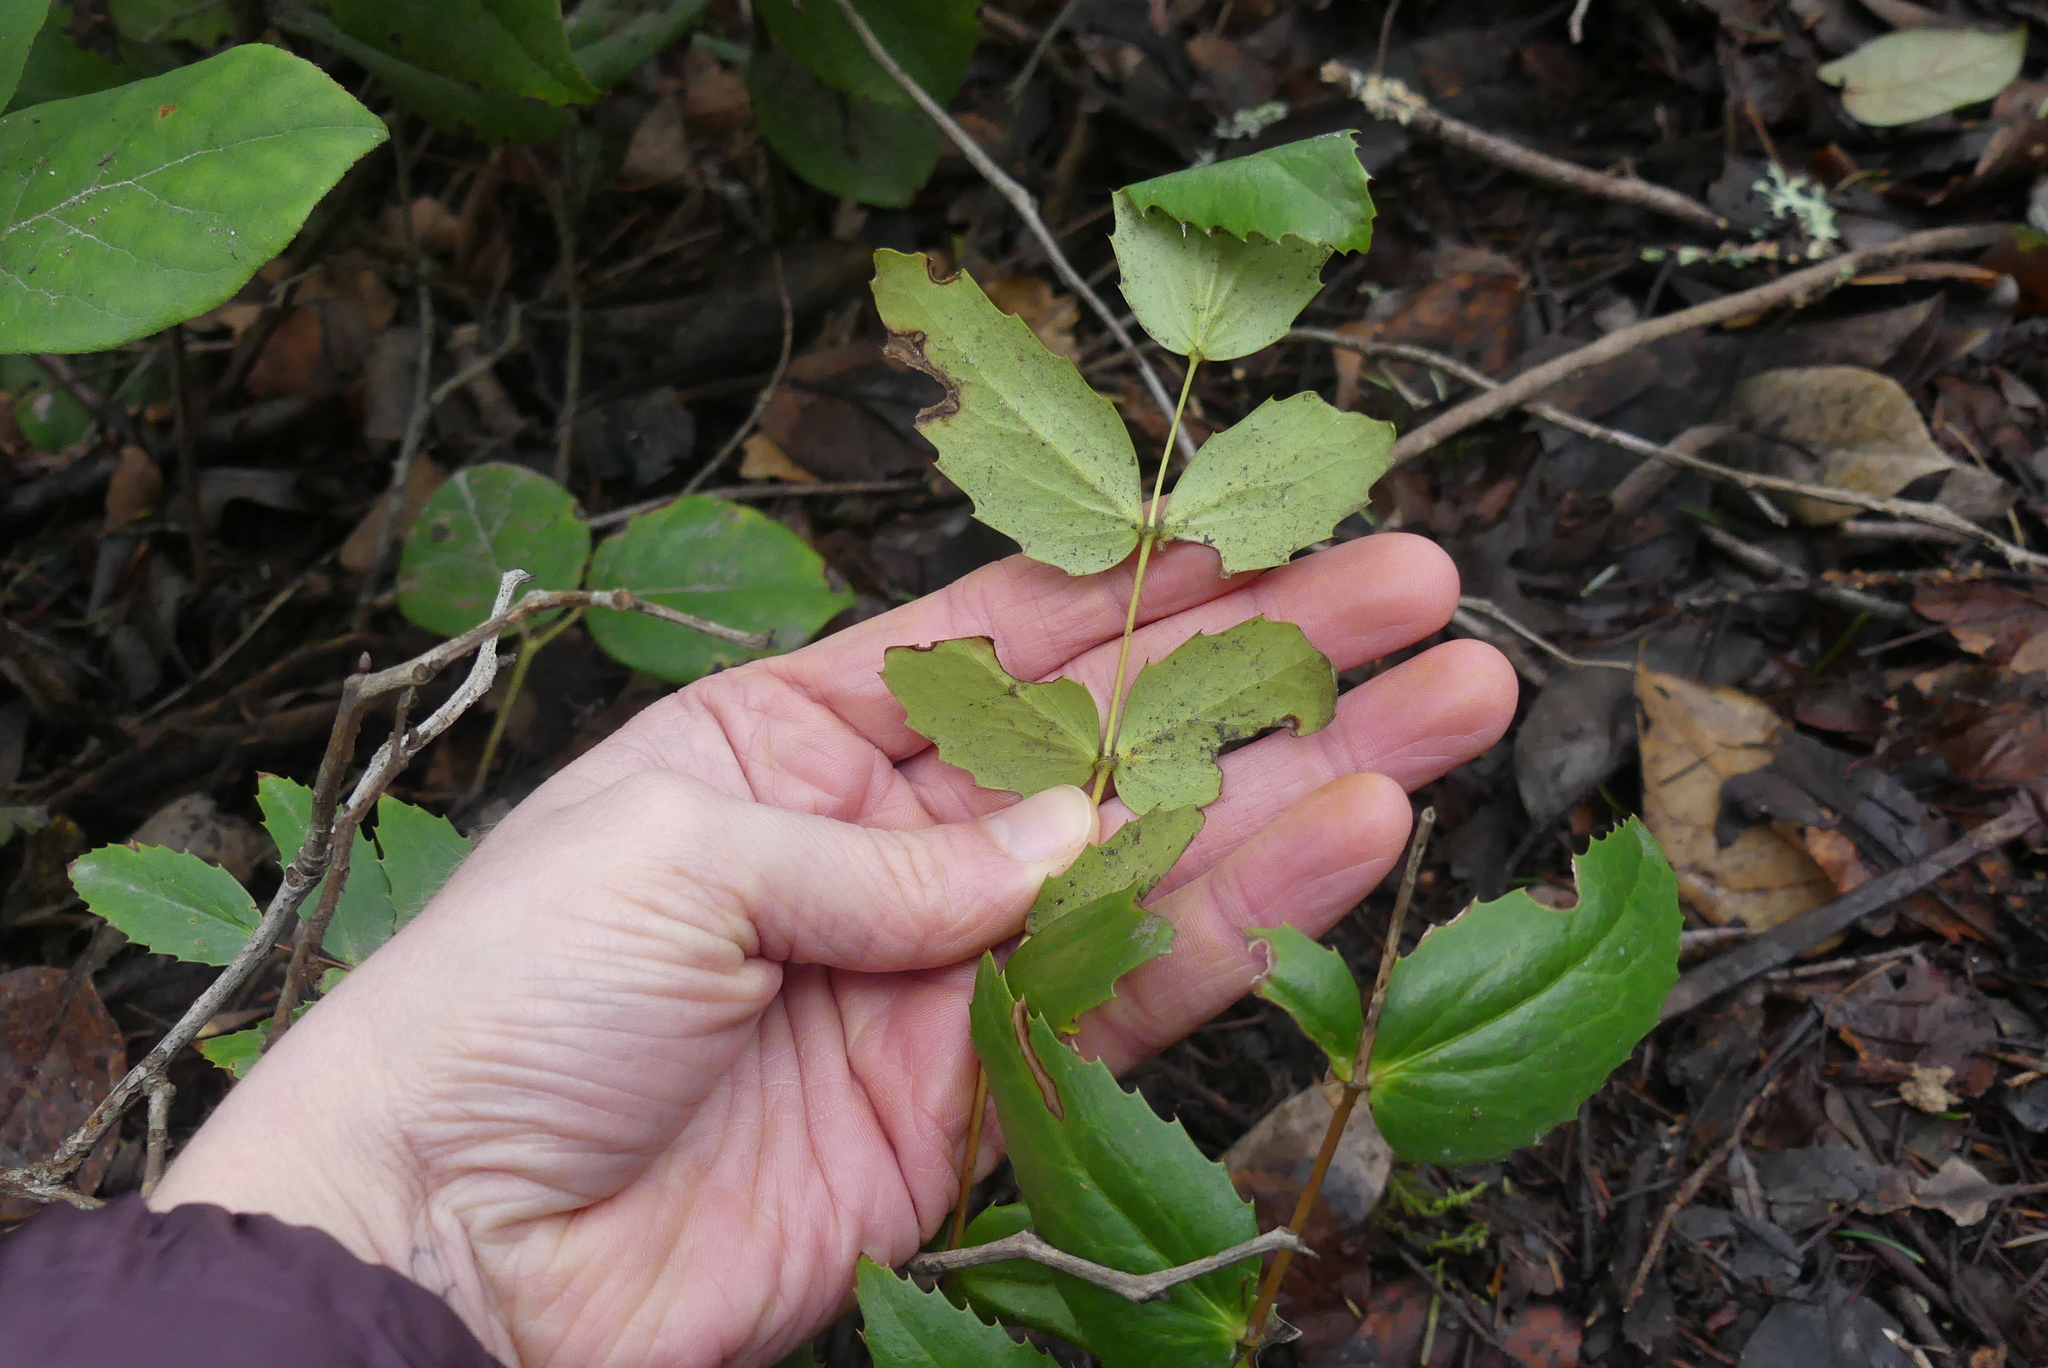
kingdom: Plantae
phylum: Tracheophyta
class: Magnoliopsida
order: Ranunculales
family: Berberidaceae
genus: Mahonia
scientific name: Mahonia nervosa
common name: Cascade oregon-grape
